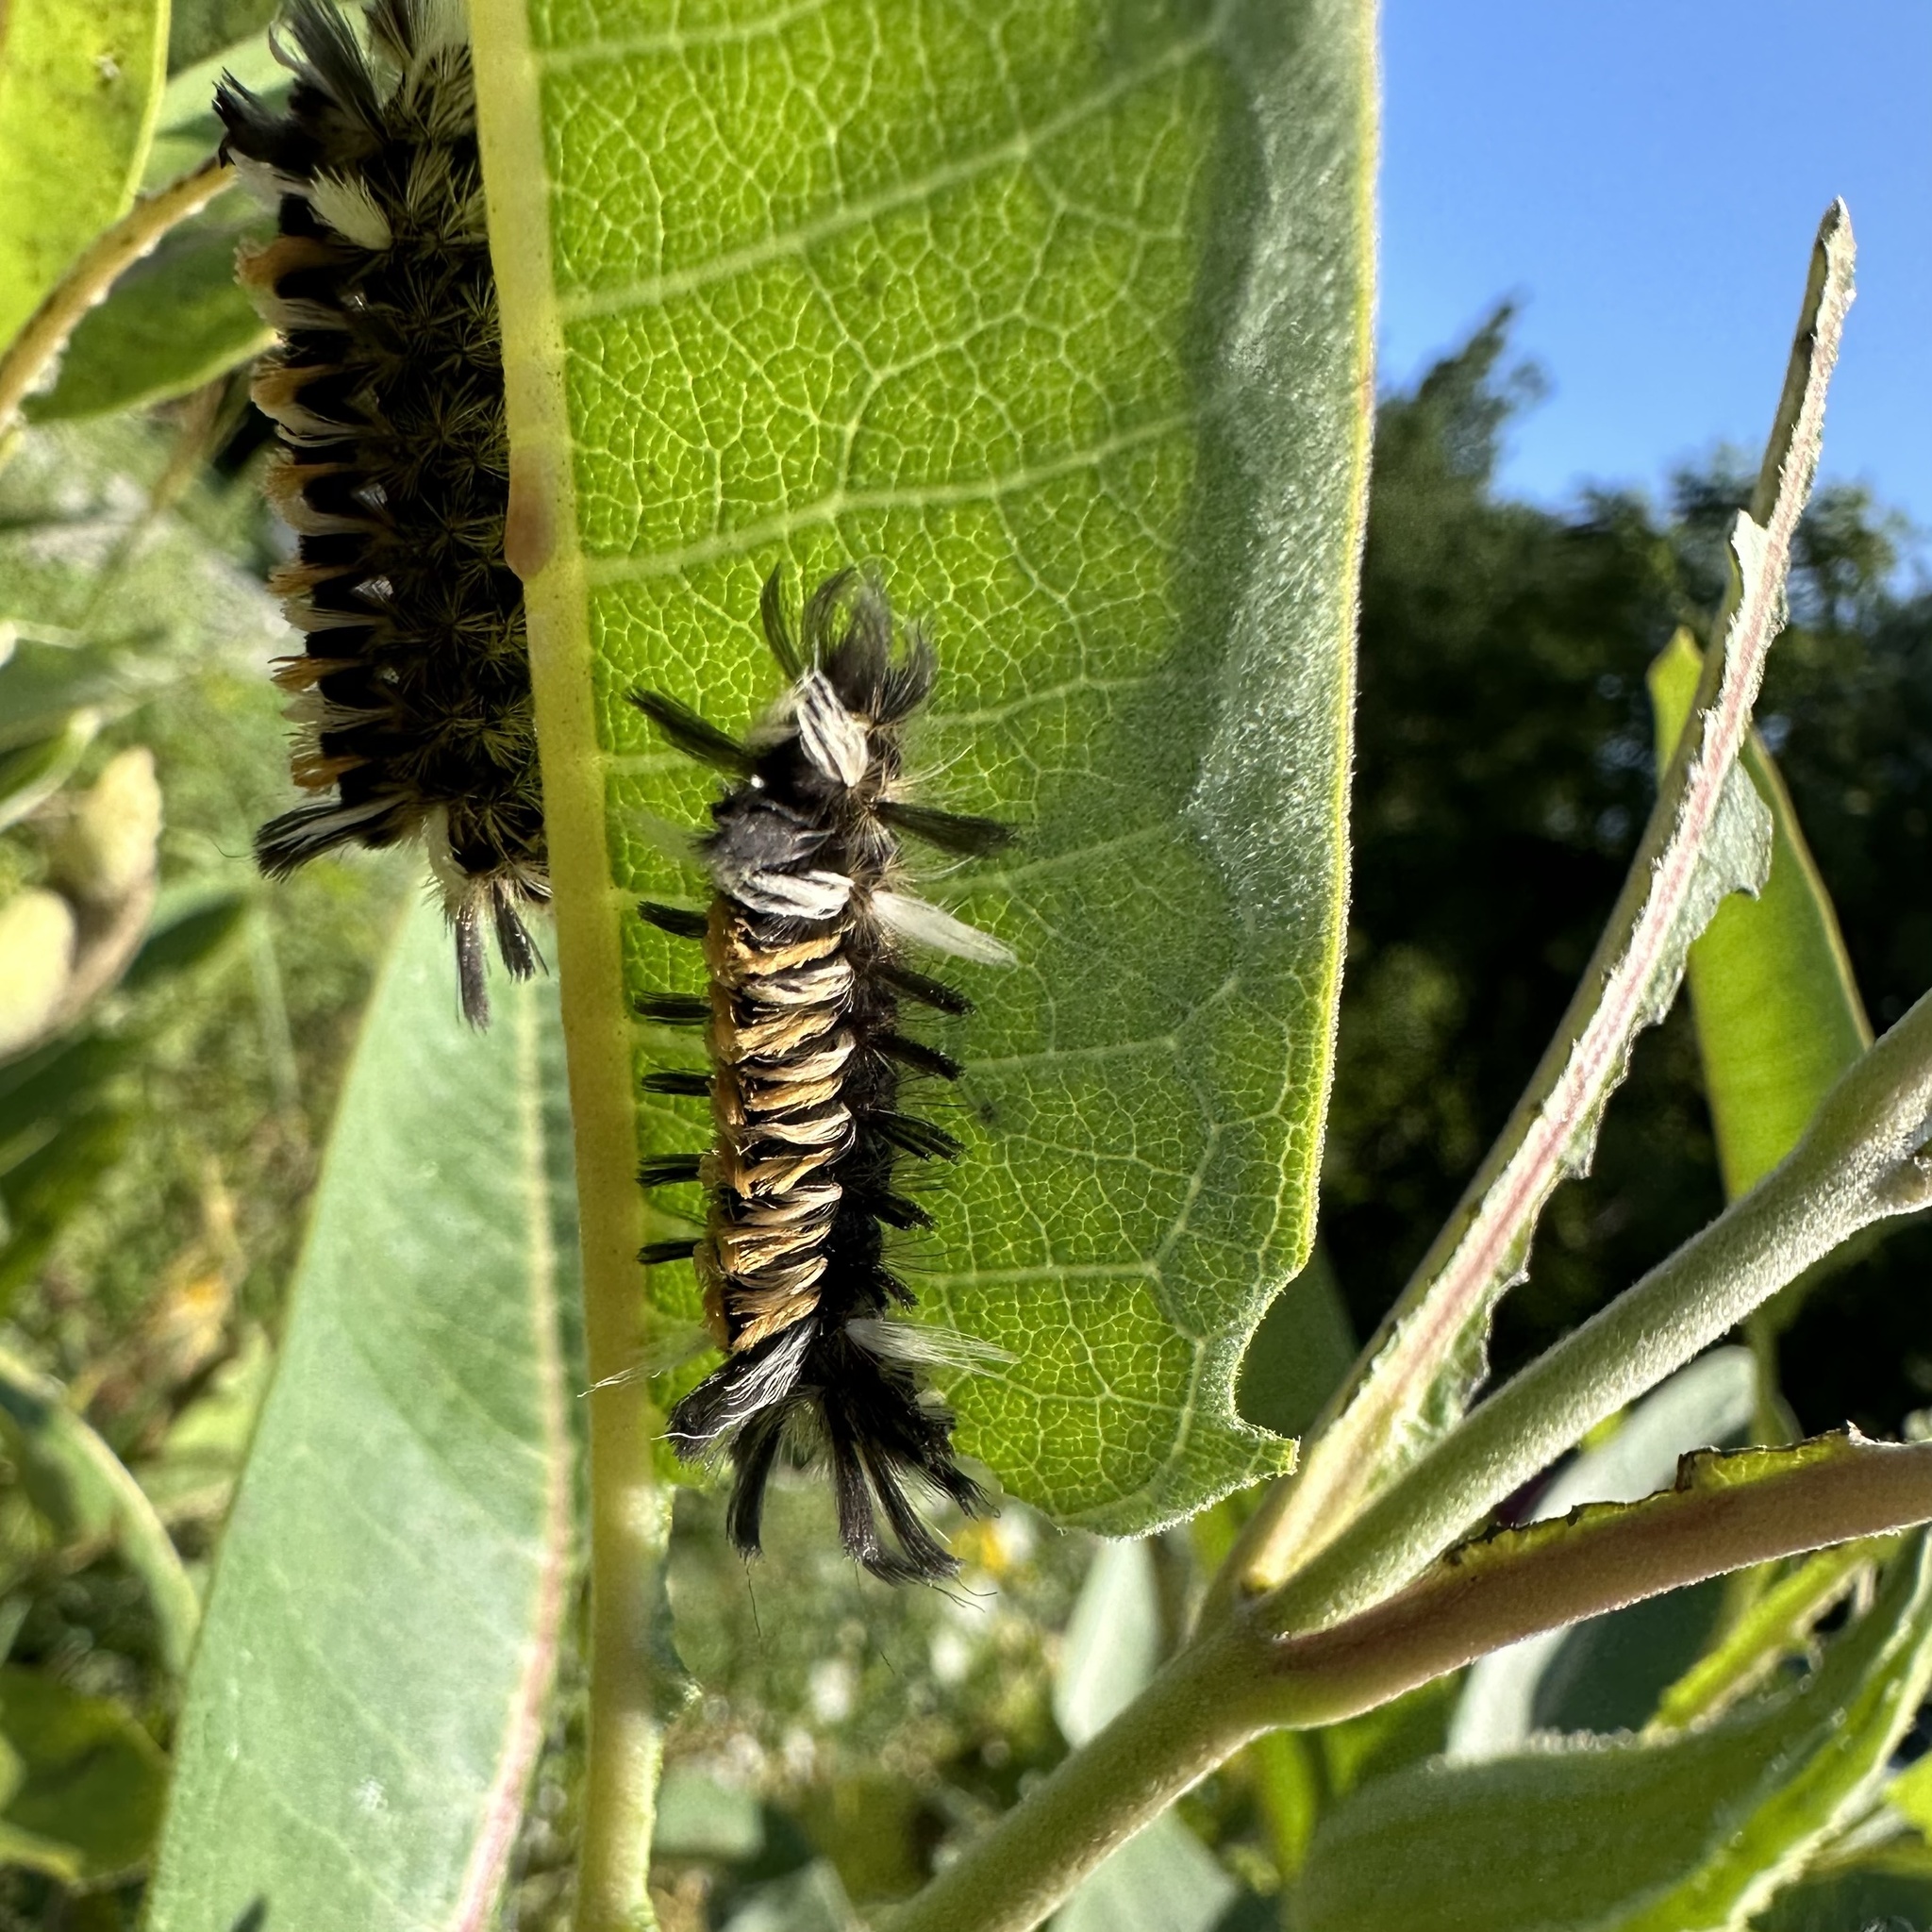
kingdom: Animalia
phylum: Arthropoda
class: Insecta
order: Lepidoptera
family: Erebidae
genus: Euchaetes
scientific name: Euchaetes egle
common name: Milkweed tussock moth
